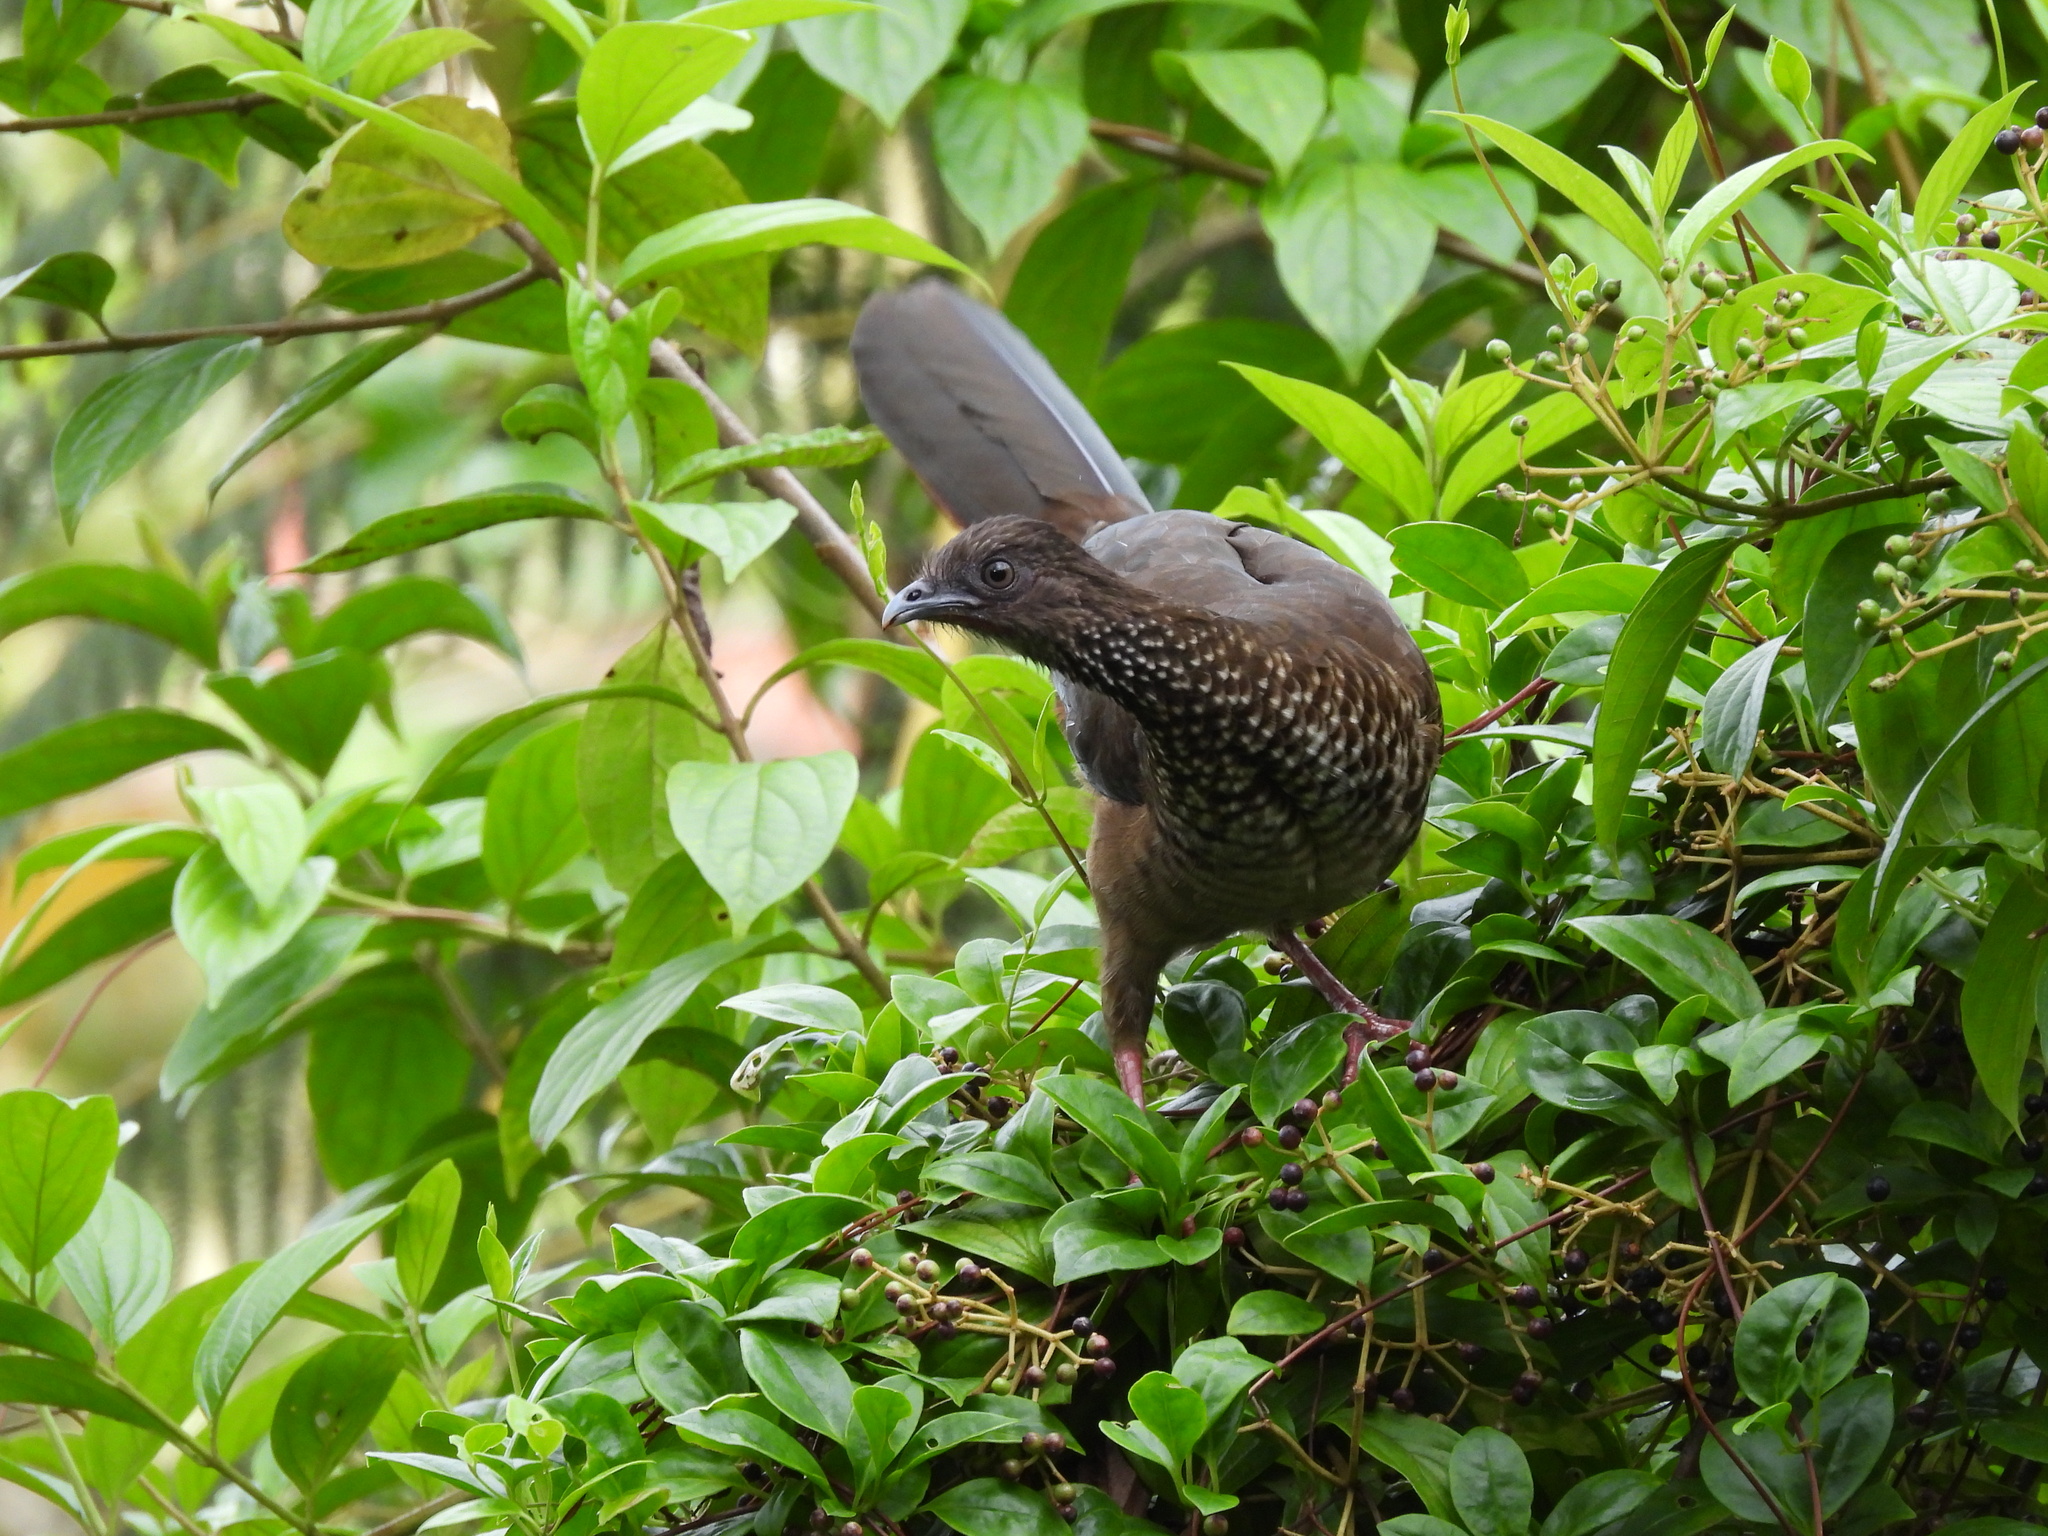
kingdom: Animalia
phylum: Chordata
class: Aves
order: Galliformes
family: Cracidae
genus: Ortalis
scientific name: Ortalis guttata
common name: Speckled chachalaca
